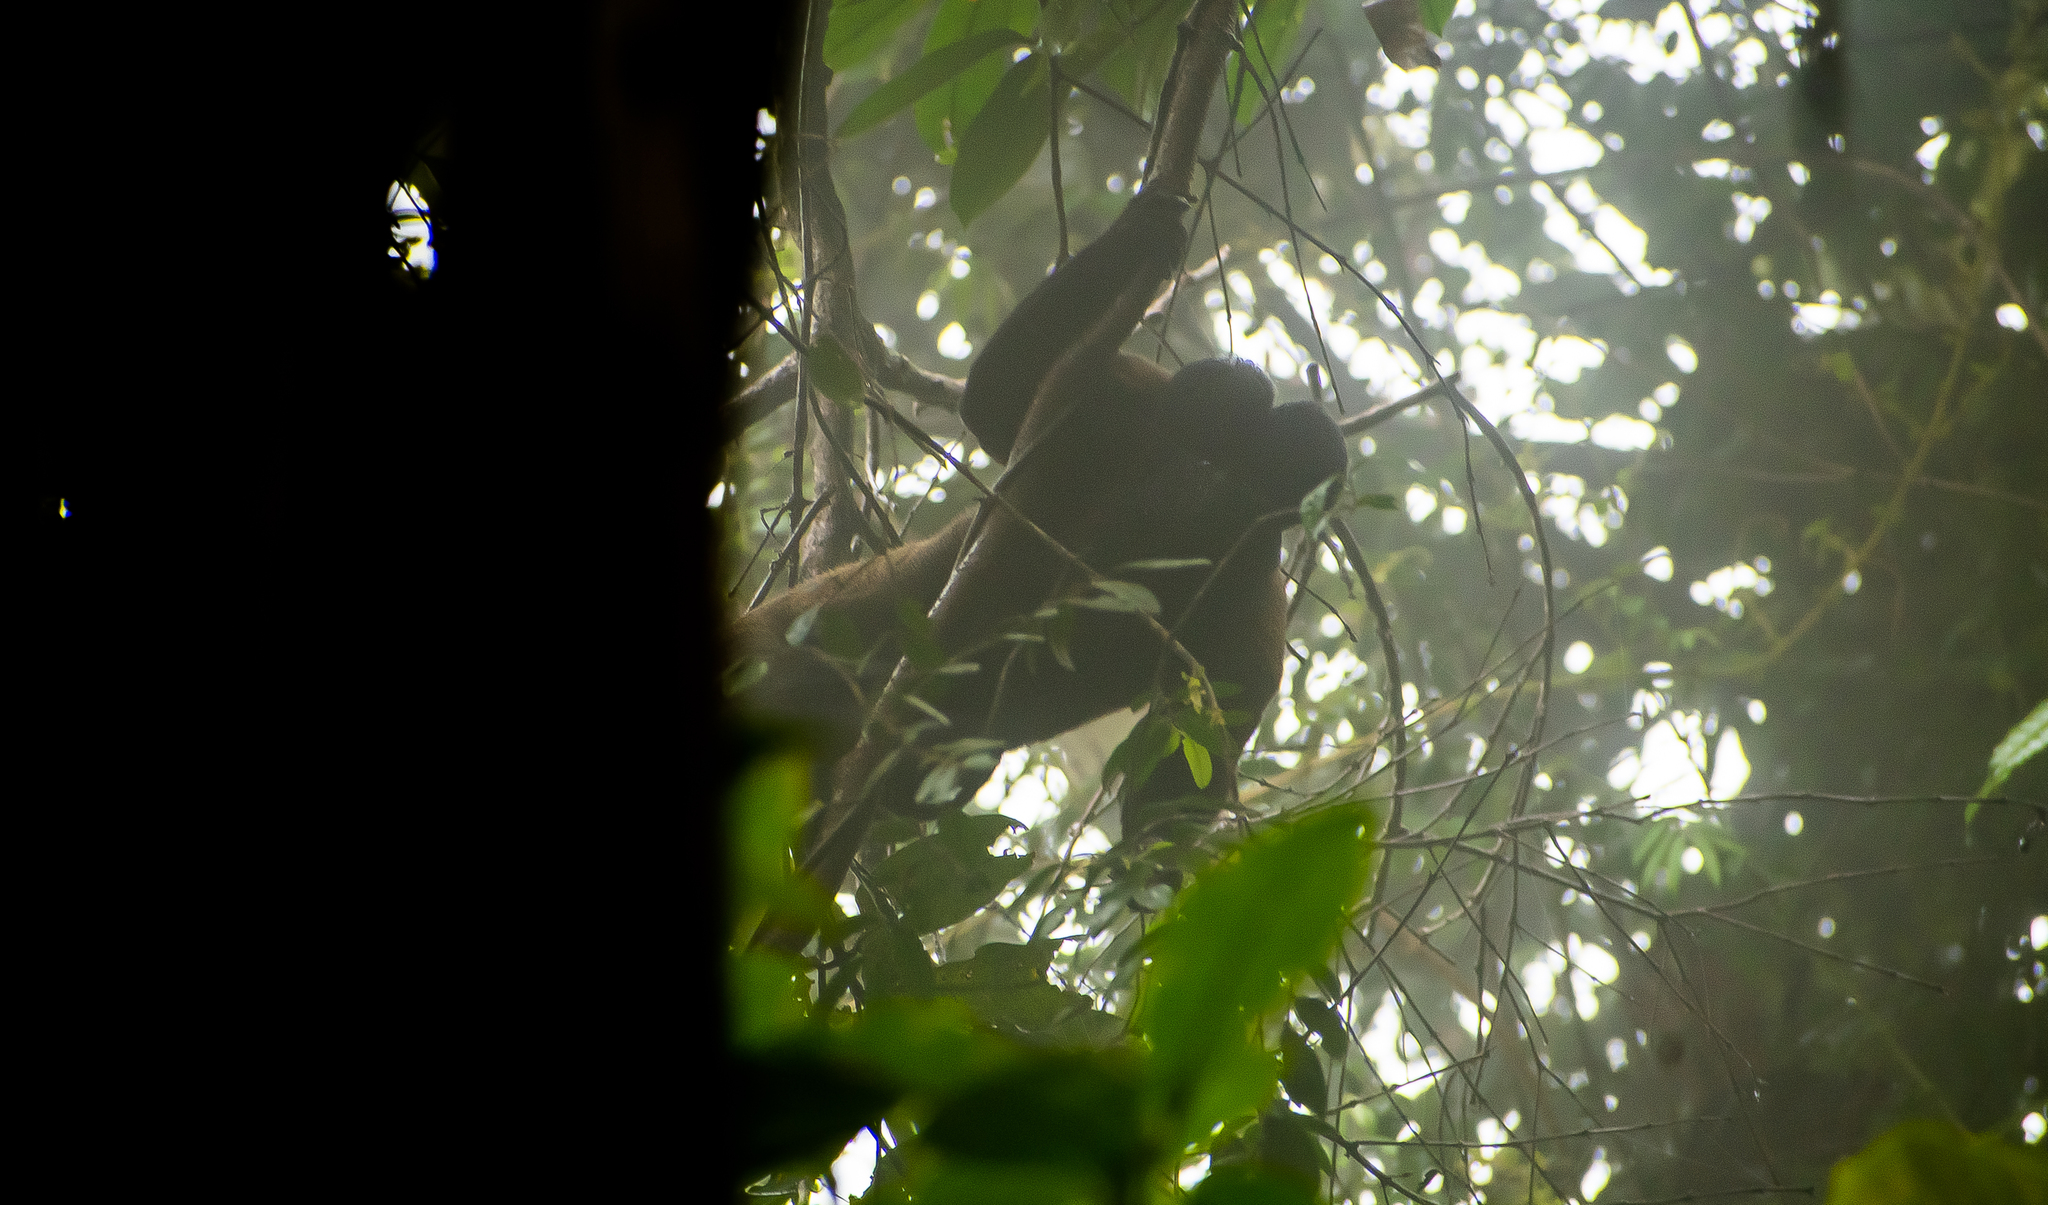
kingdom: Animalia
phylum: Chordata
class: Mammalia
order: Primates
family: Pitheciidae
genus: Chiropotes
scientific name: Chiropotes chiropotes
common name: Red-backed bearded saki
